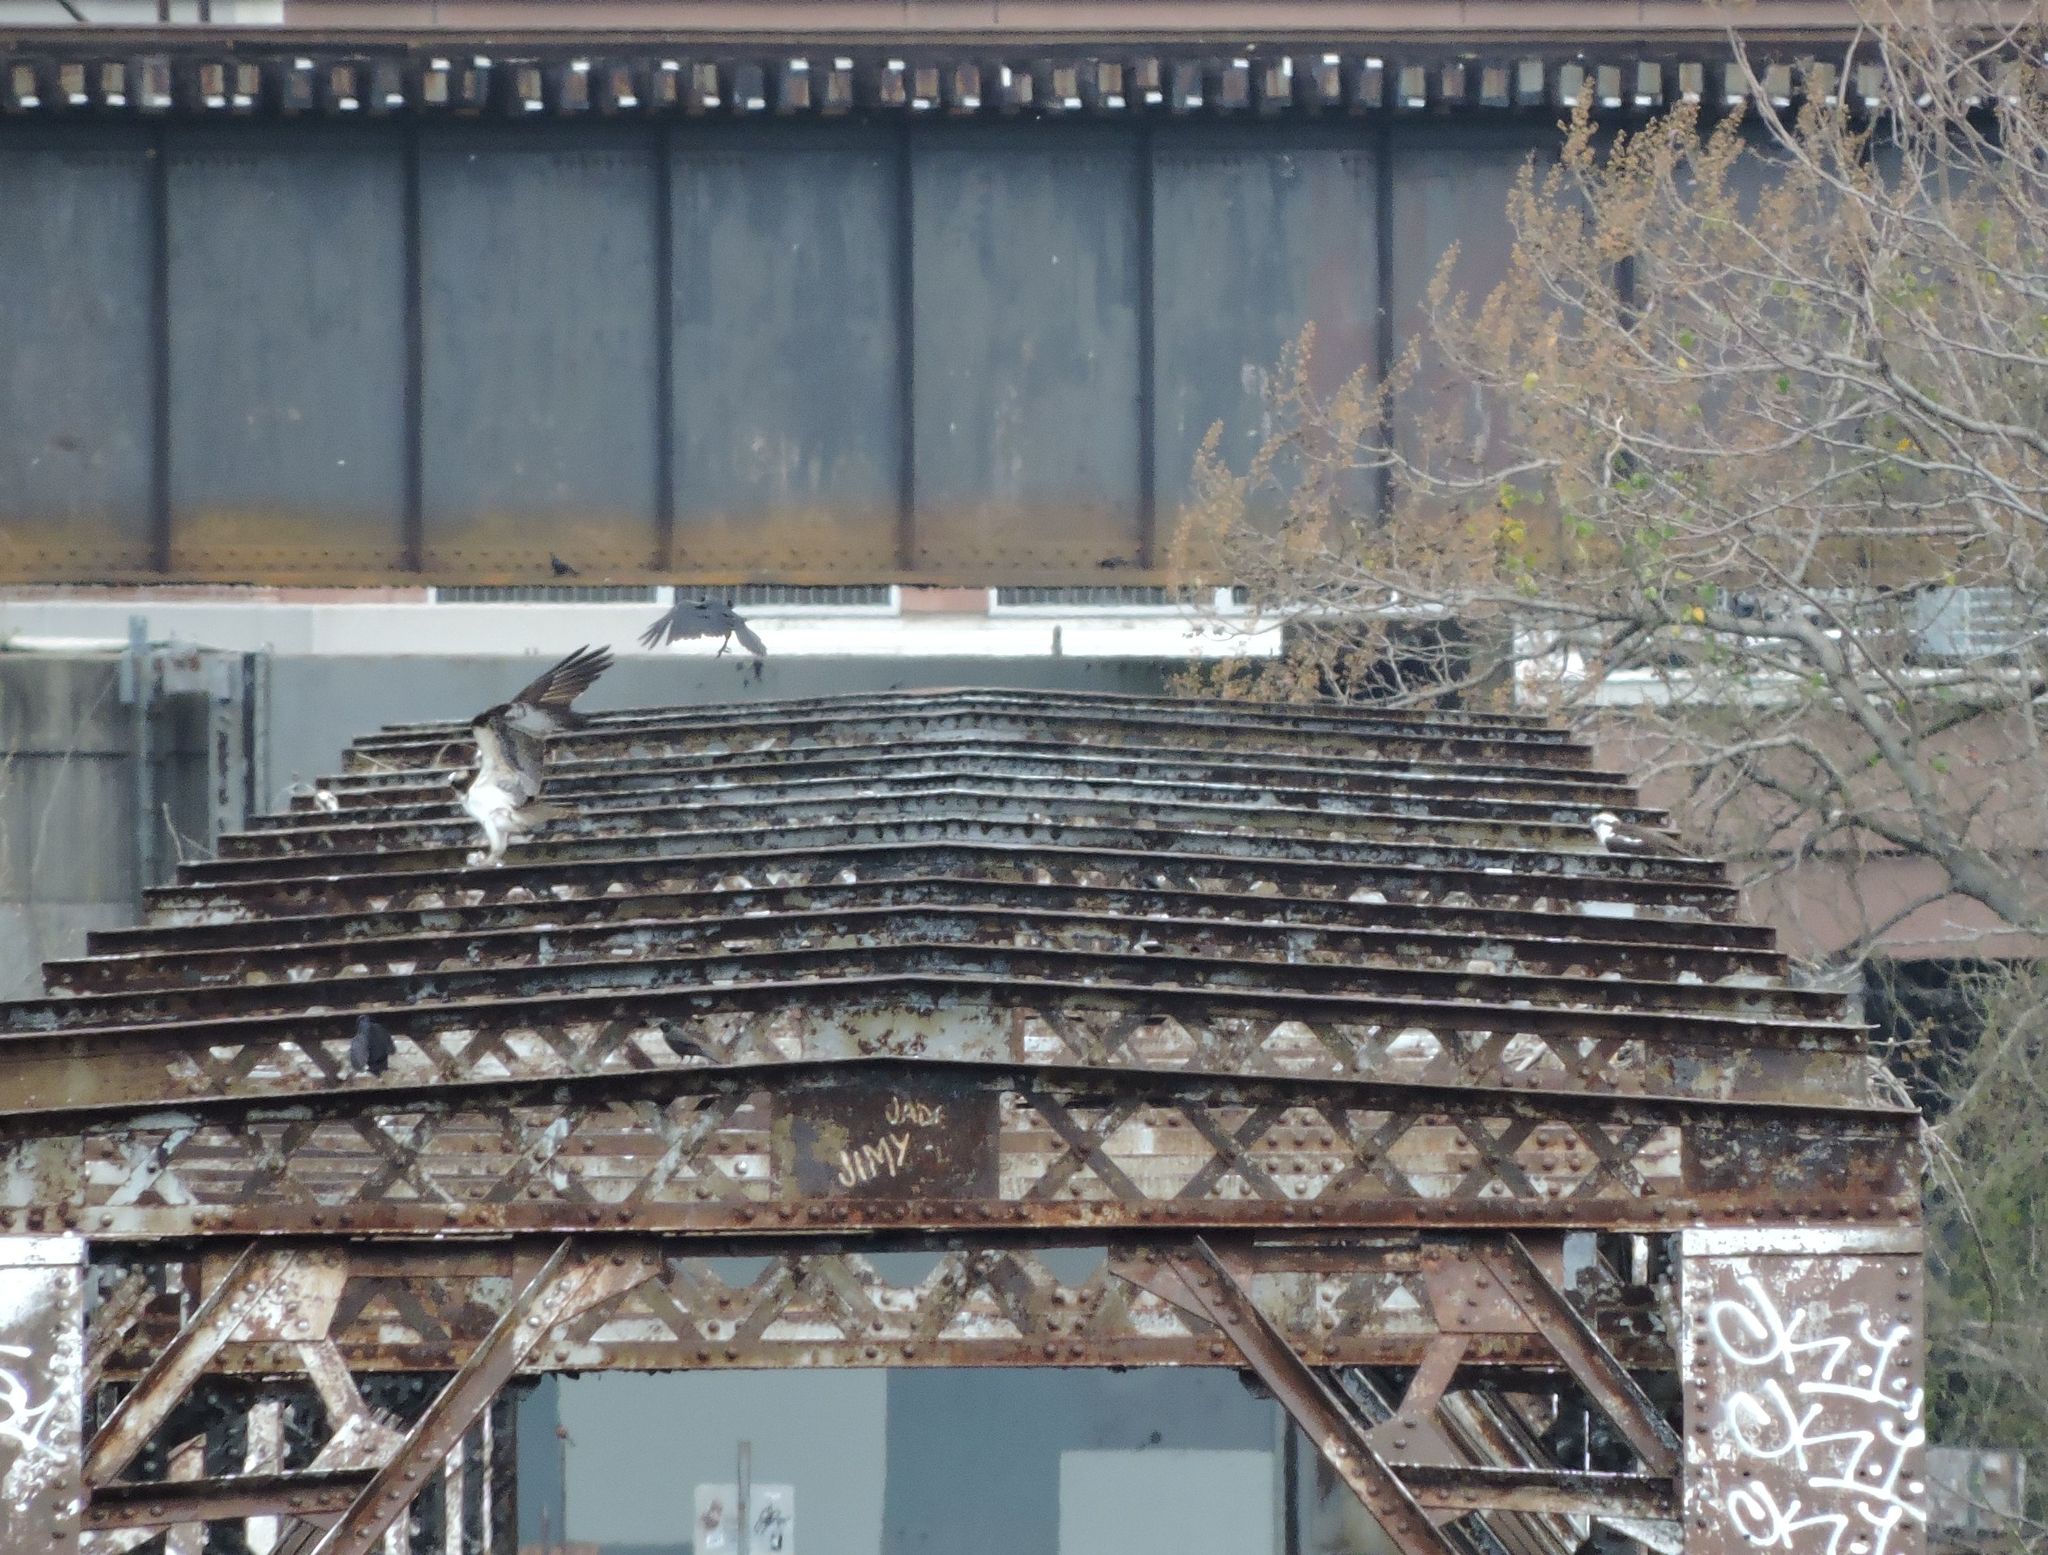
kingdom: Animalia
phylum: Chordata
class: Aves
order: Accipitriformes
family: Pandionidae
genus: Pandion
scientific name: Pandion haliaetus
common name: Osprey
